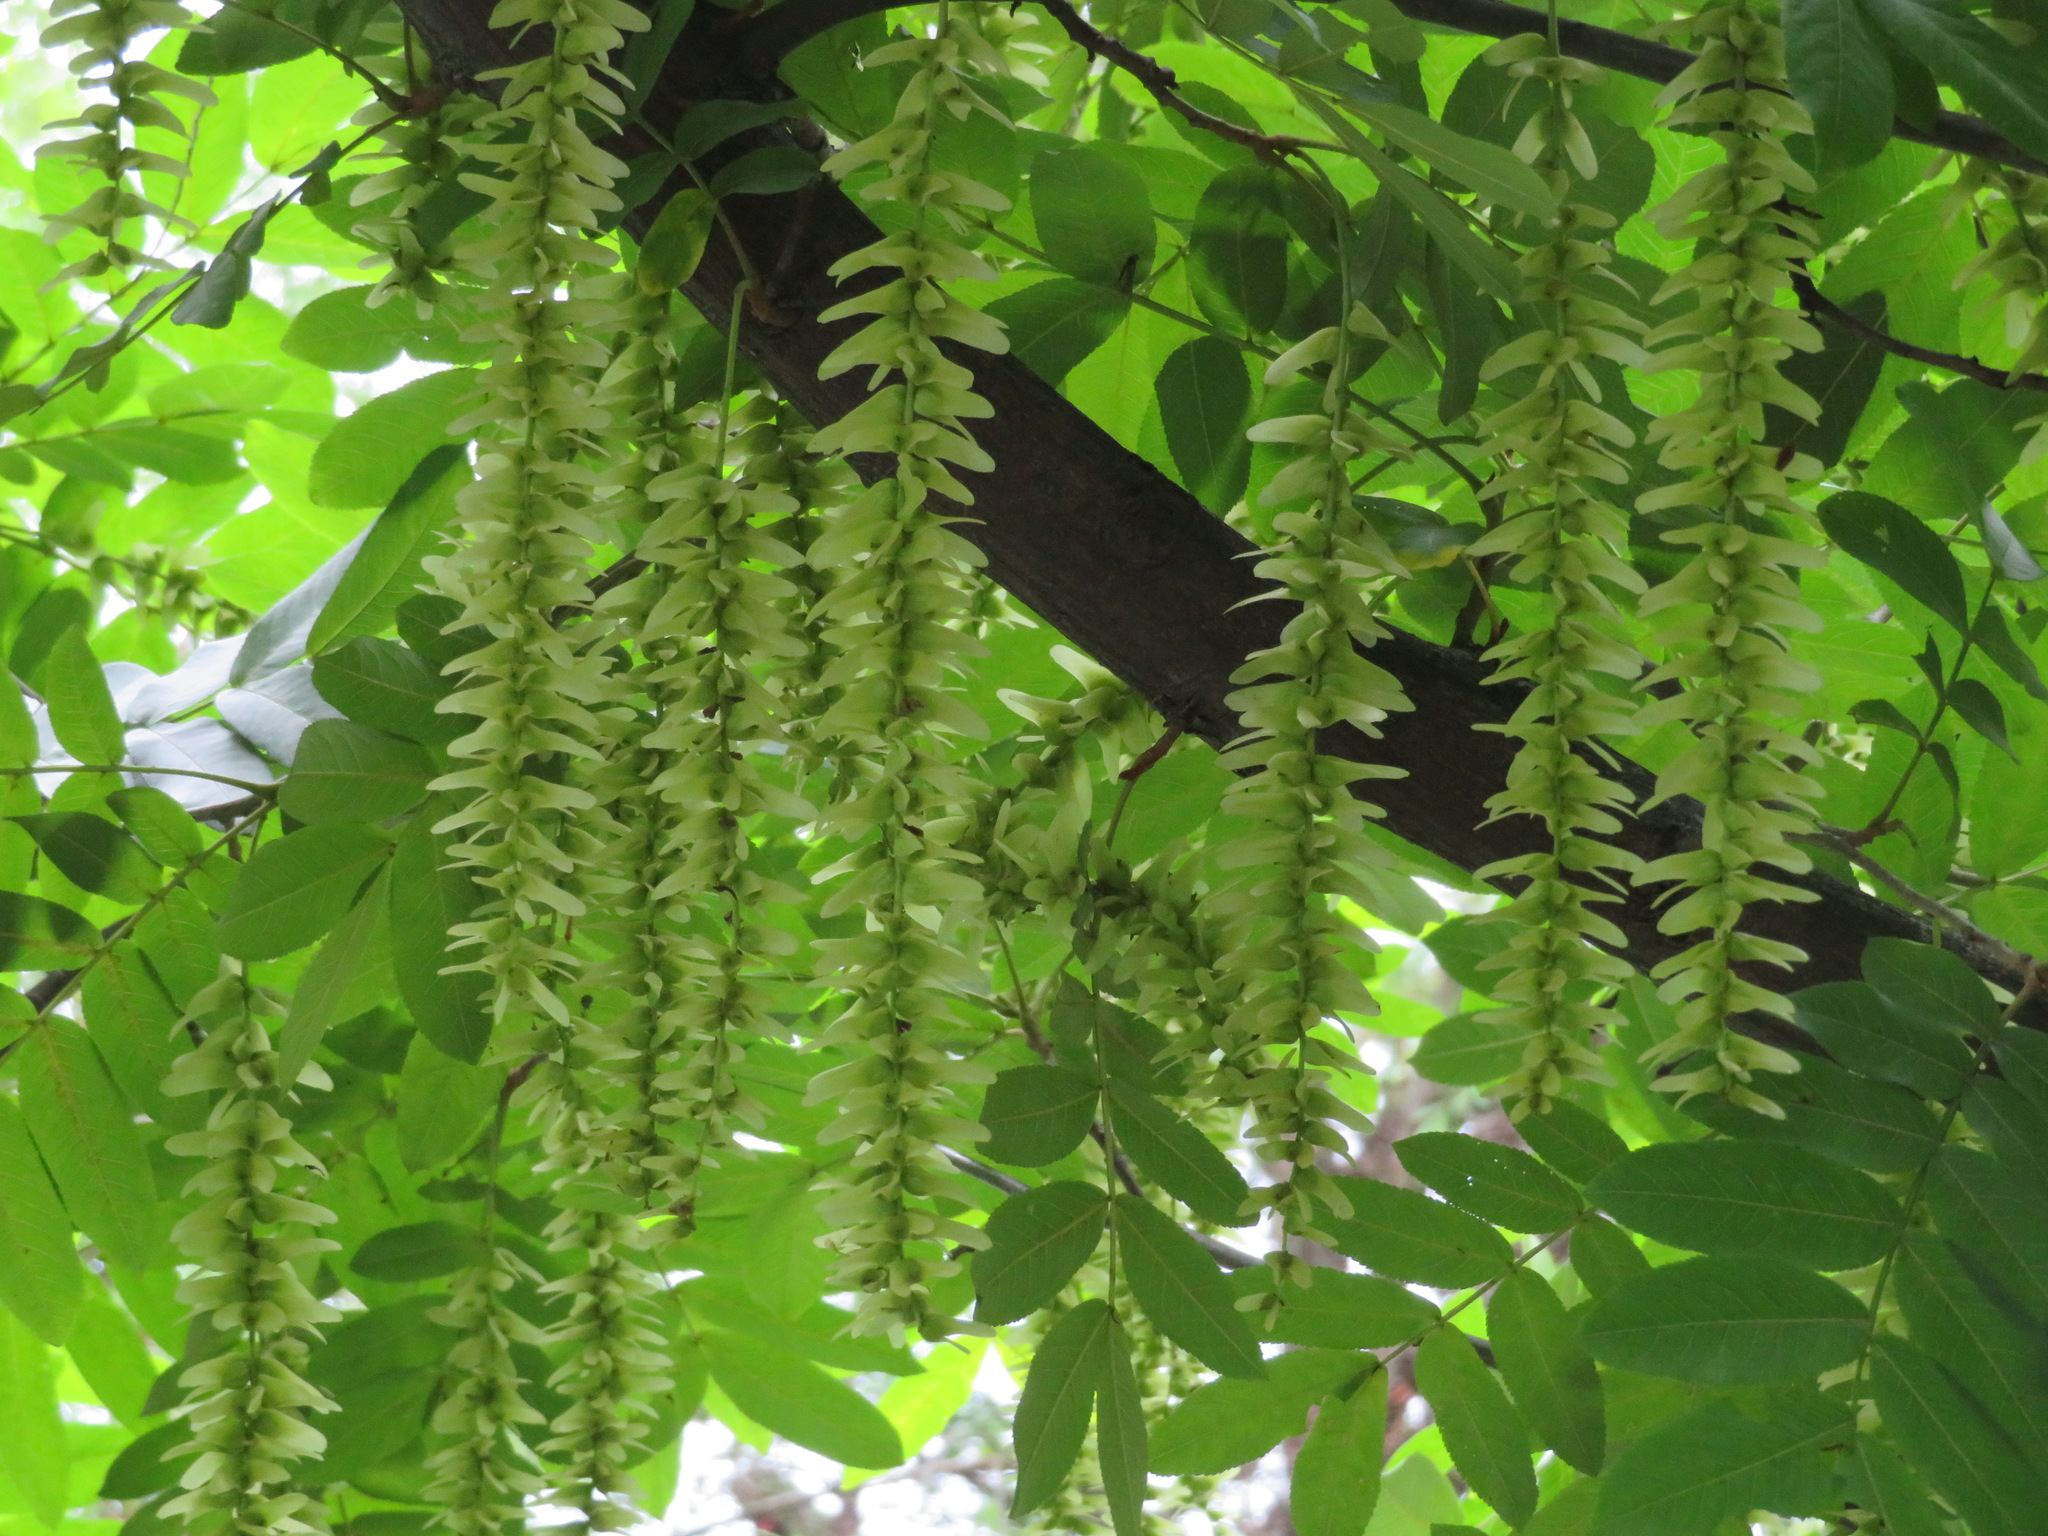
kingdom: Plantae
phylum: Tracheophyta
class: Magnoliopsida
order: Fagales
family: Juglandaceae
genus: Pterocarya
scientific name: Pterocarya stenoptera
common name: Chinese wingnut
